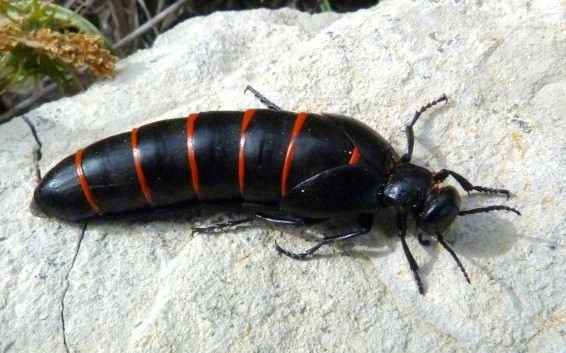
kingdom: Animalia
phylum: Arthropoda
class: Insecta
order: Coleoptera
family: Meloidae
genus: Berberomeloe
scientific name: Berberomeloe majalis
